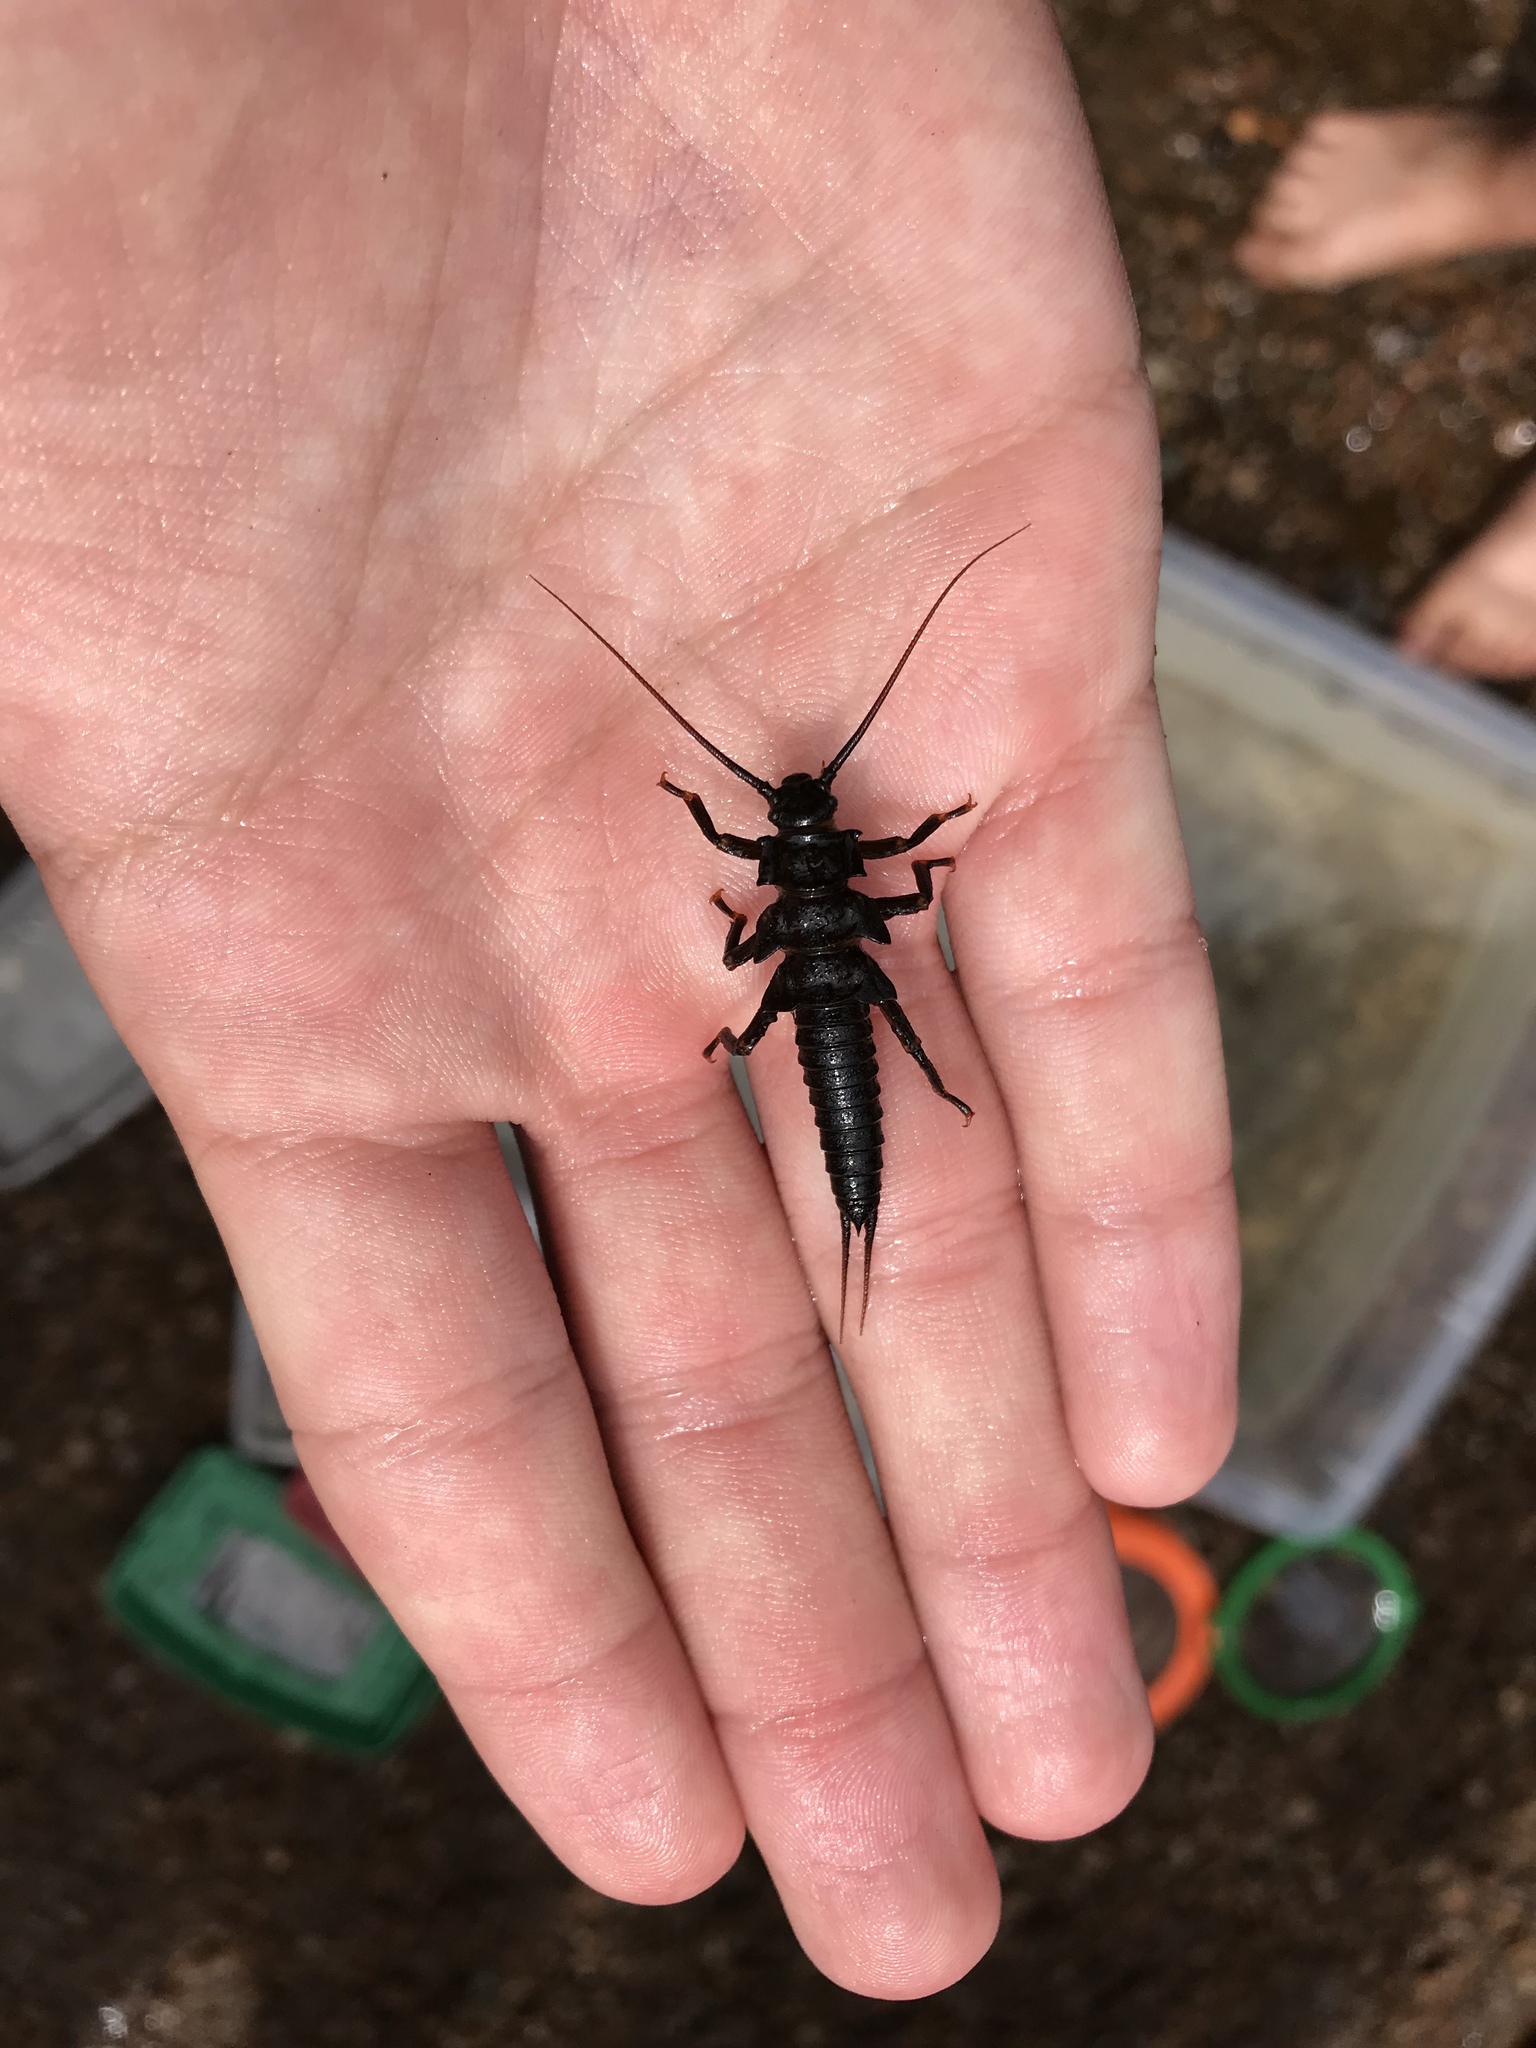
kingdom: Animalia
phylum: Arthropoda
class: Insecta
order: Plecoptera
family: Pteronarcyidae
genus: Pteronarcys
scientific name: Pteronarcys dorsata
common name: American salmonfly
